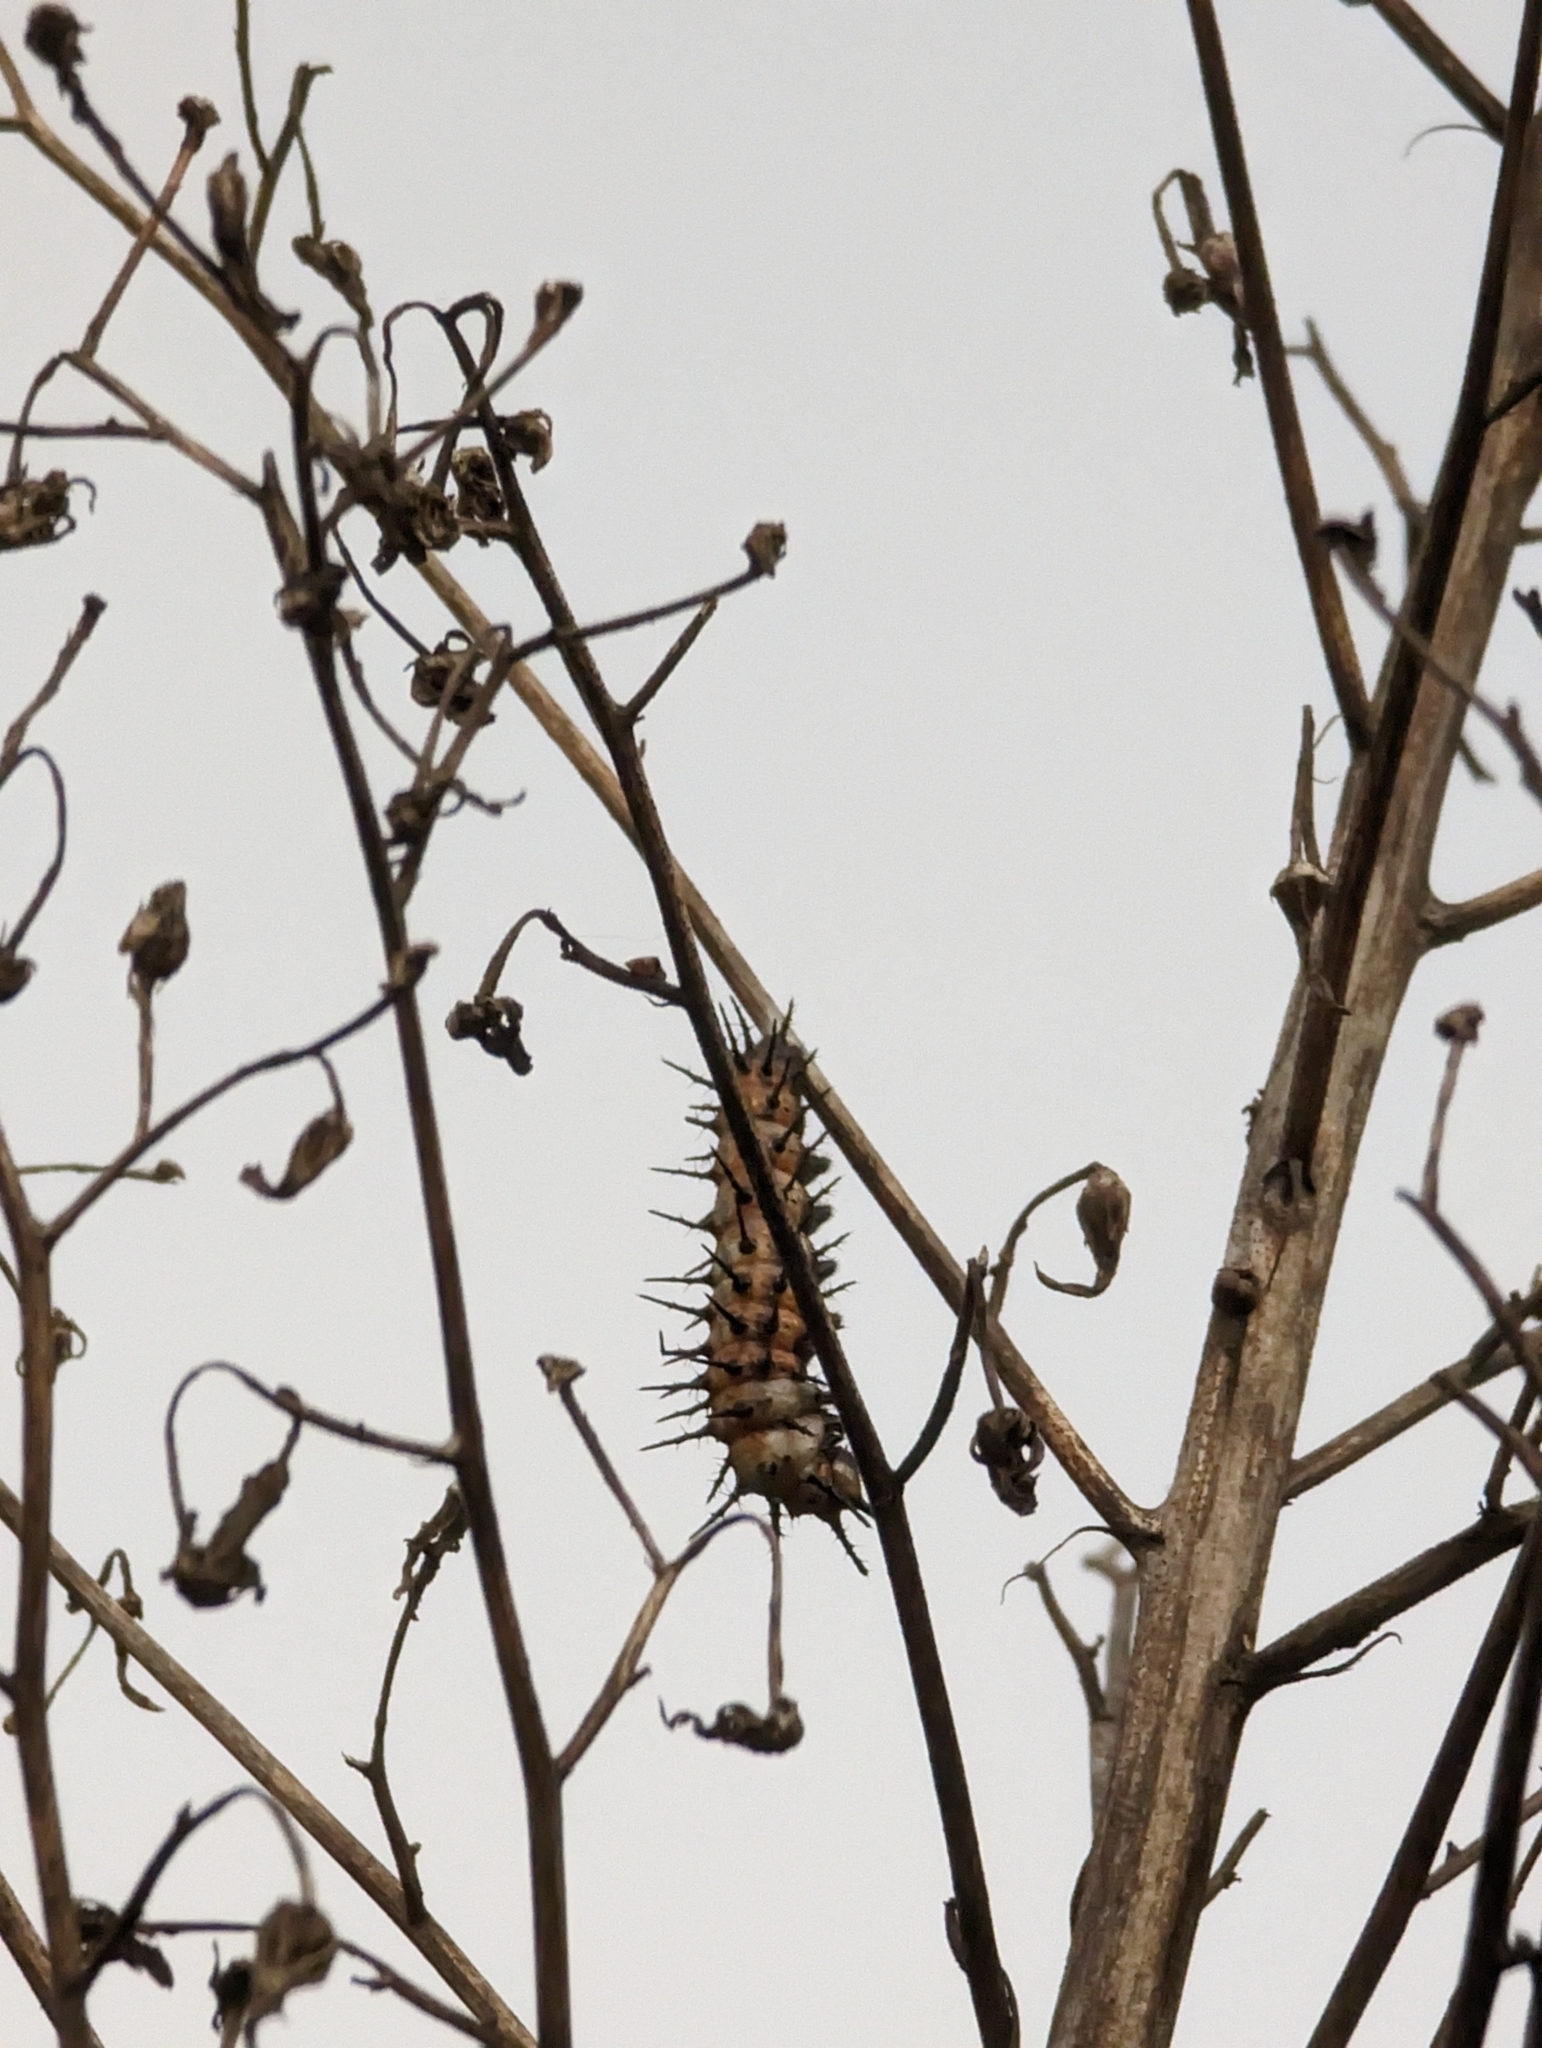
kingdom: Animalia
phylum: Arthropoda
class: Insecta
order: Lepidoptera
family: Nymphalidae
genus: Dione
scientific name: Dione vanillae
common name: Gulf fritillary
